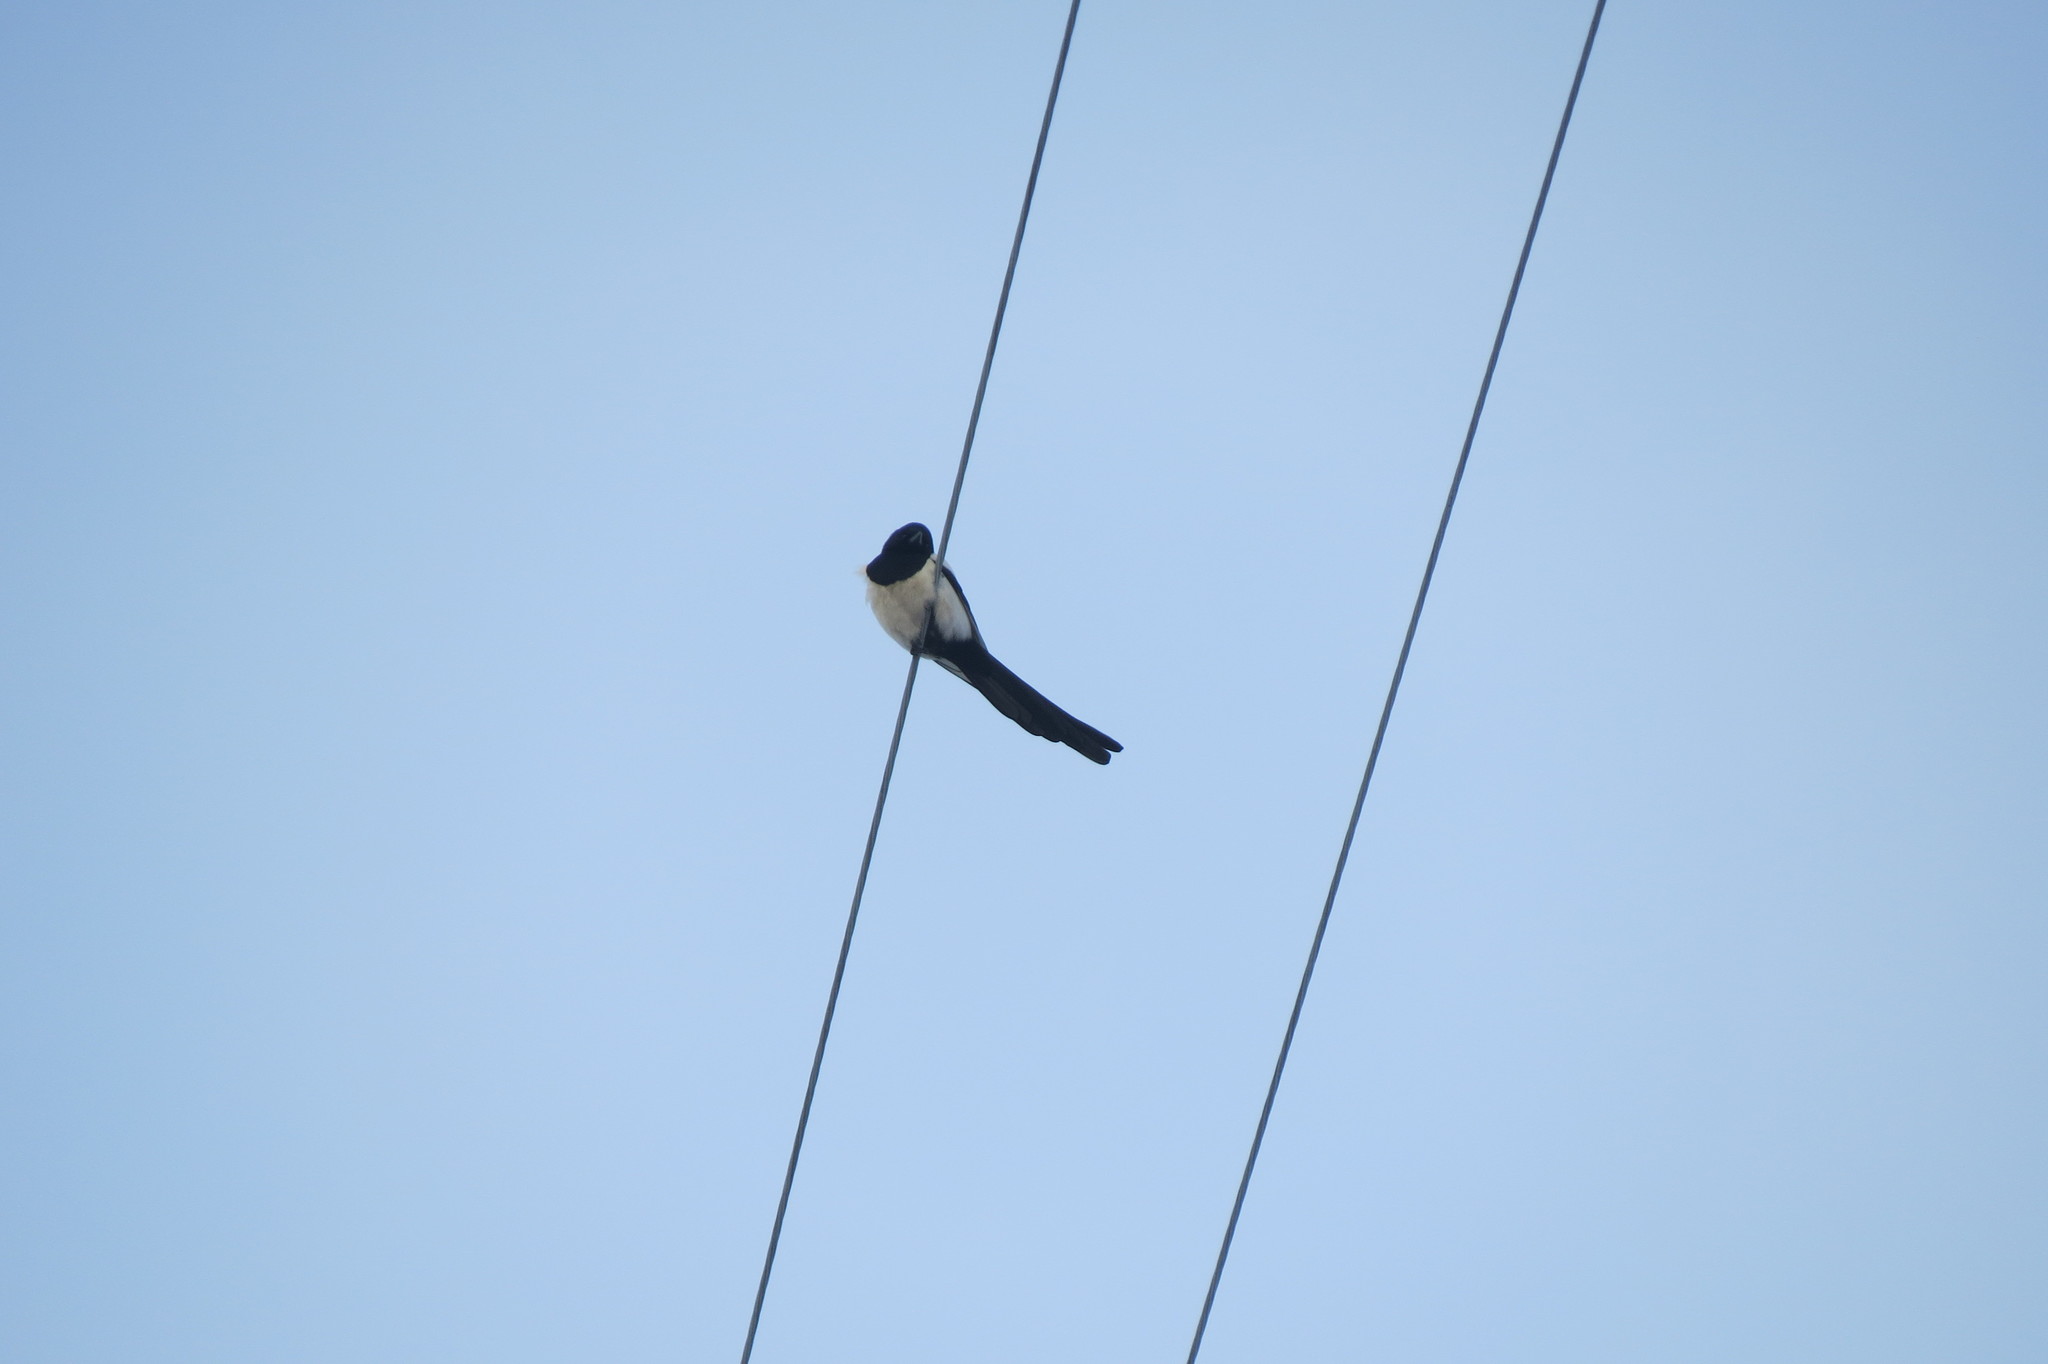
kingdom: Animalia
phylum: Chordata
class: Aves
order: Passeriformes
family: Corvidae
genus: Pica
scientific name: Pica pica
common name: Eurasian magpie
